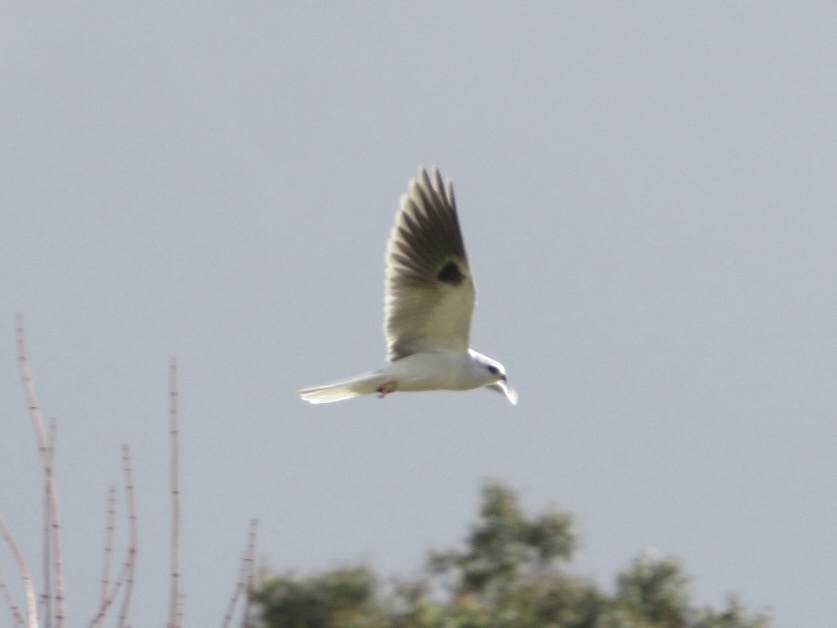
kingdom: Animalia
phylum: Chordata
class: Aves
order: Accipitriformes
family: Accipitridae
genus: Elanus
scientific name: Elanus leucurus
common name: White-tailed kite
